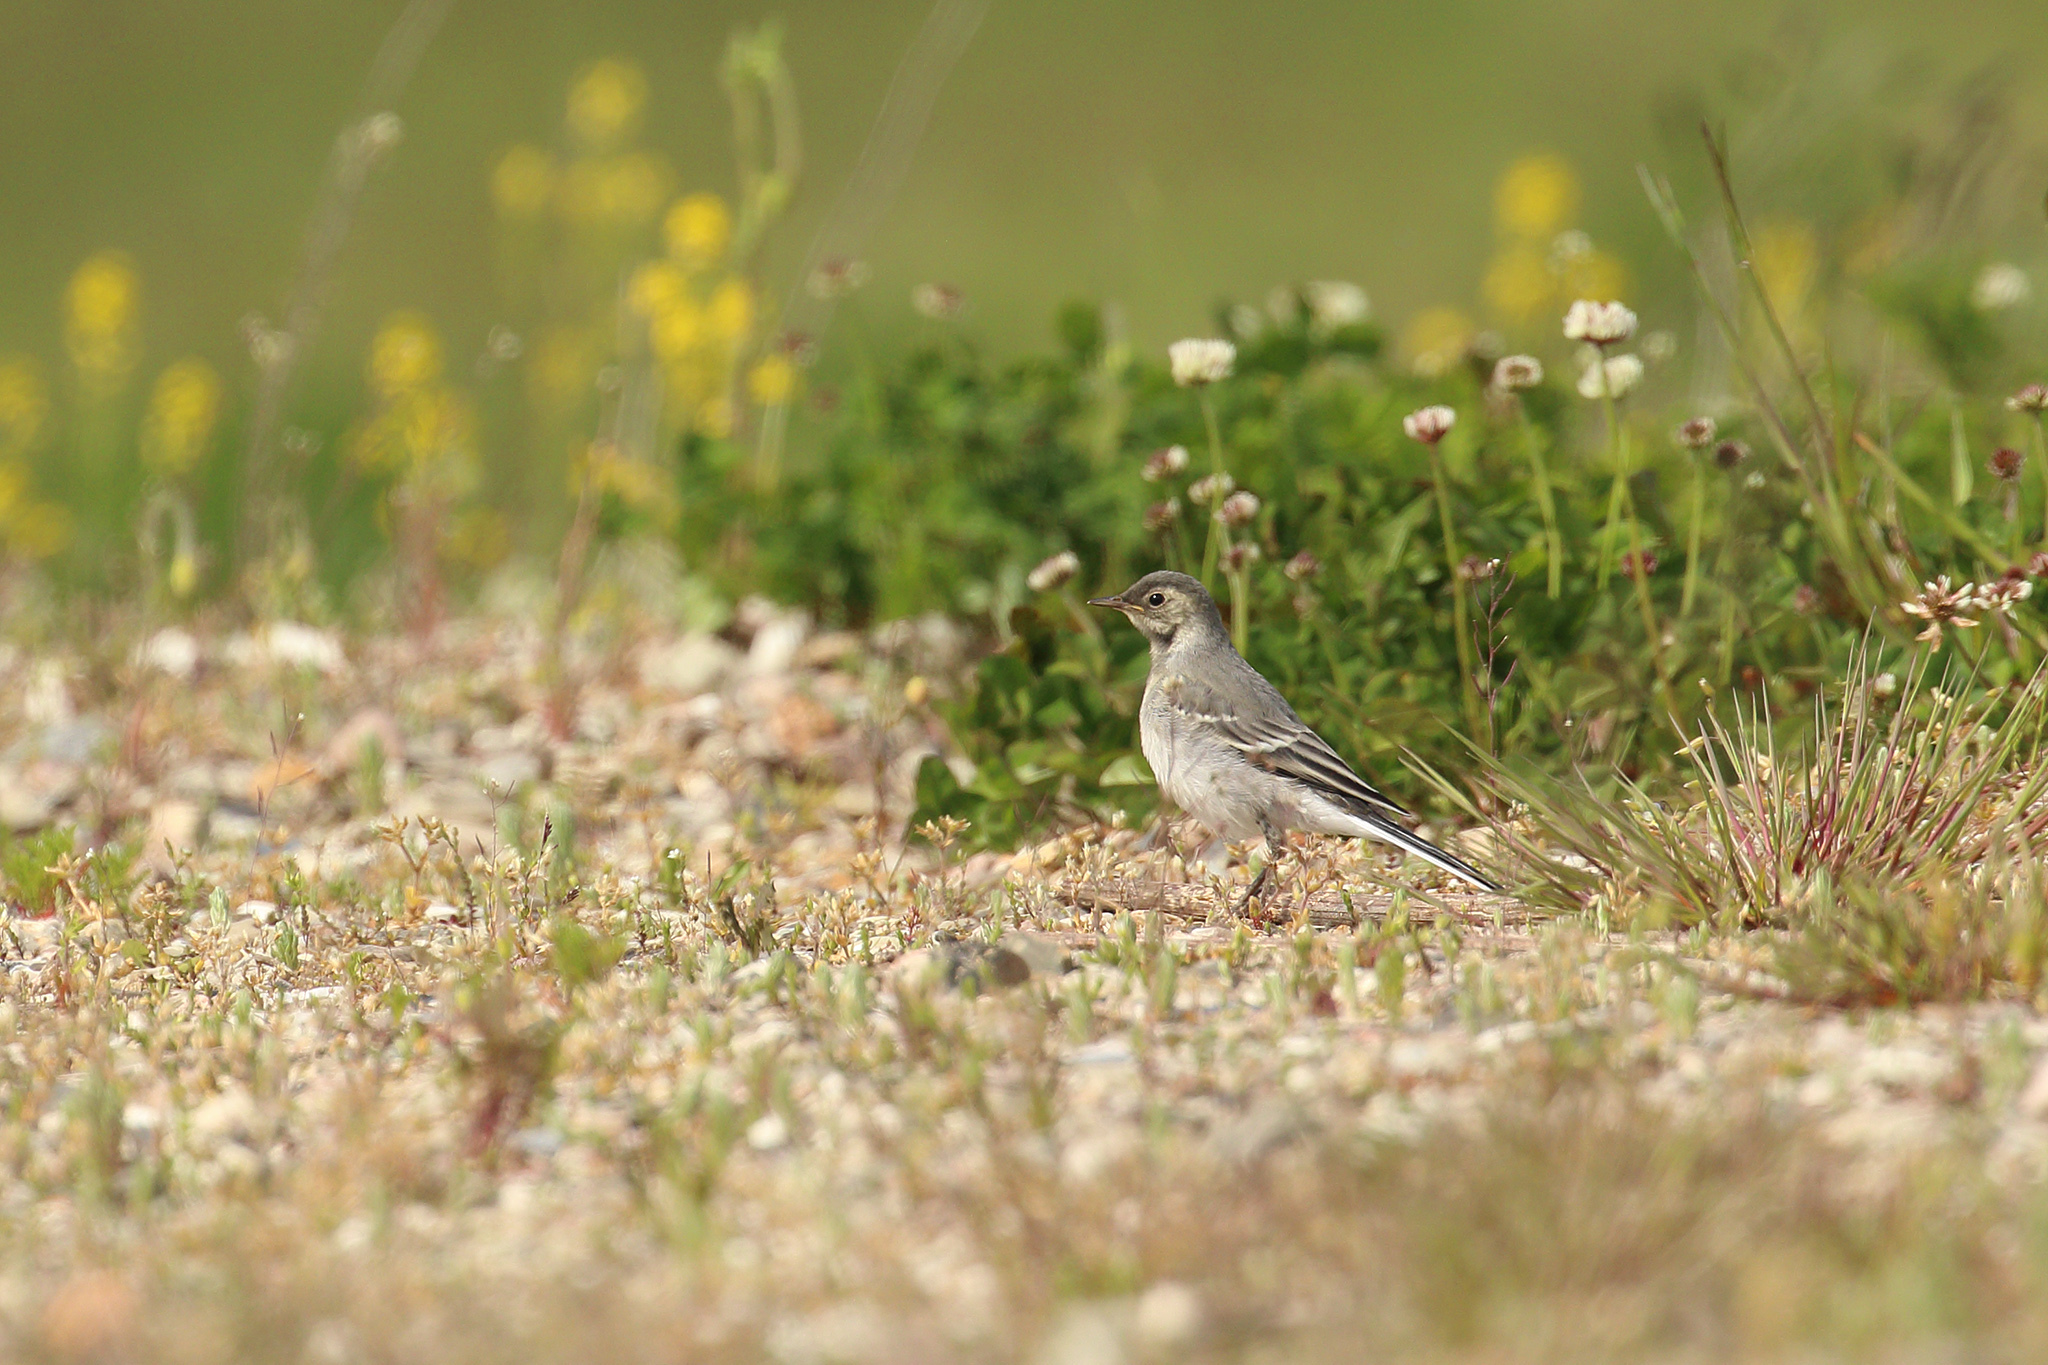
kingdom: Animalia
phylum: Chordata
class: Aves
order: Passeriformes
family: Motacillidae
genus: Motacilla
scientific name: Motacilla alba
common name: White wagtail
